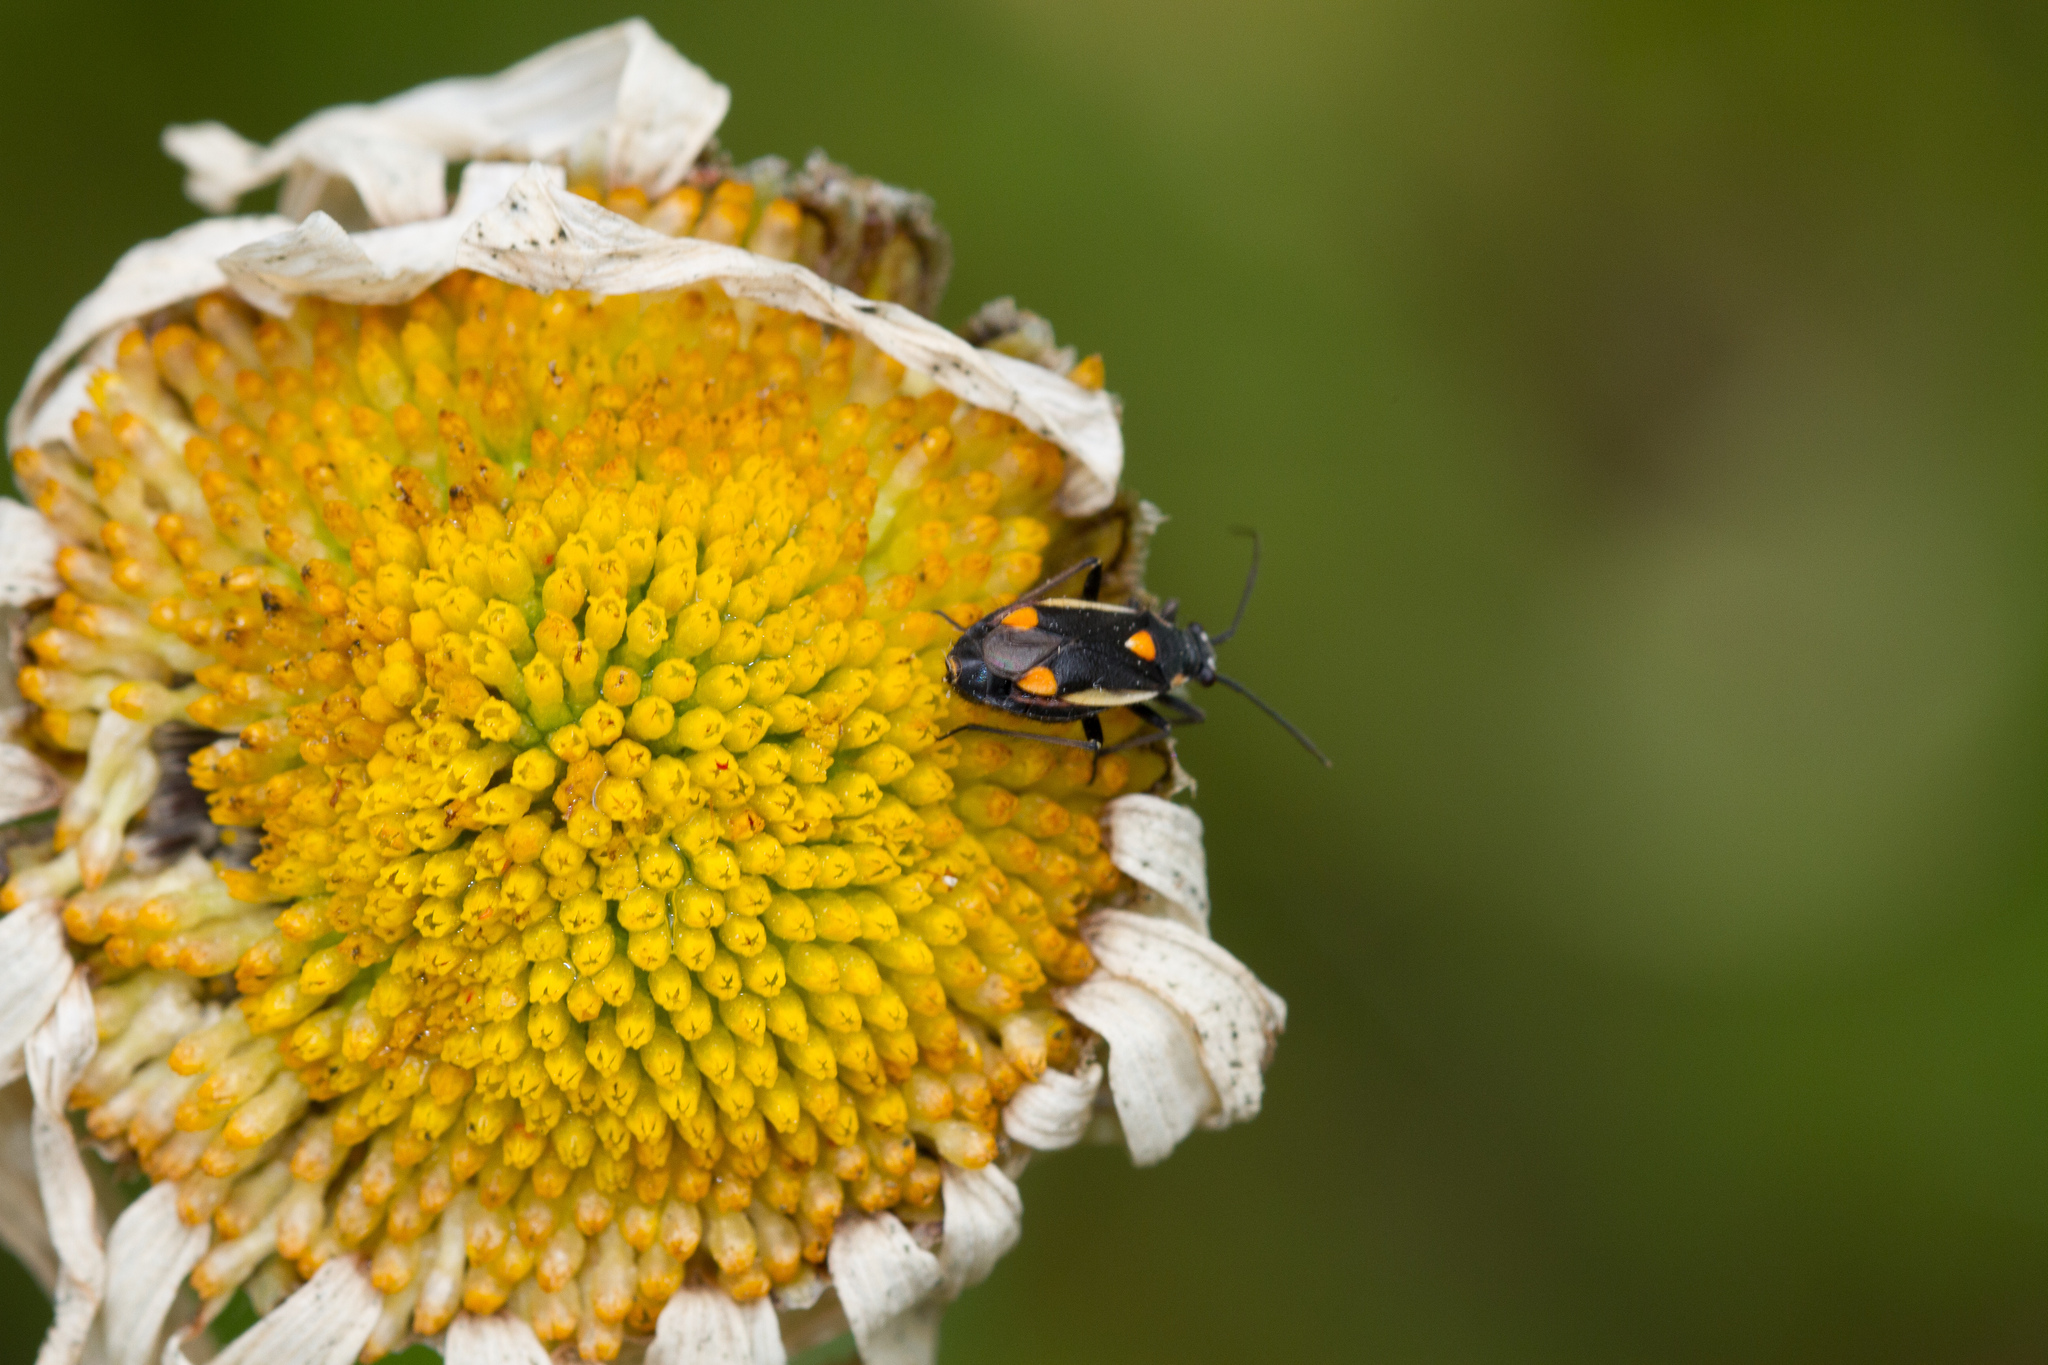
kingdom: Animalia
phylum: Arthropoda
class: Insecta
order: Hemiptera
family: Miridae
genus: Capsodes
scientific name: Capsodes gothicus
